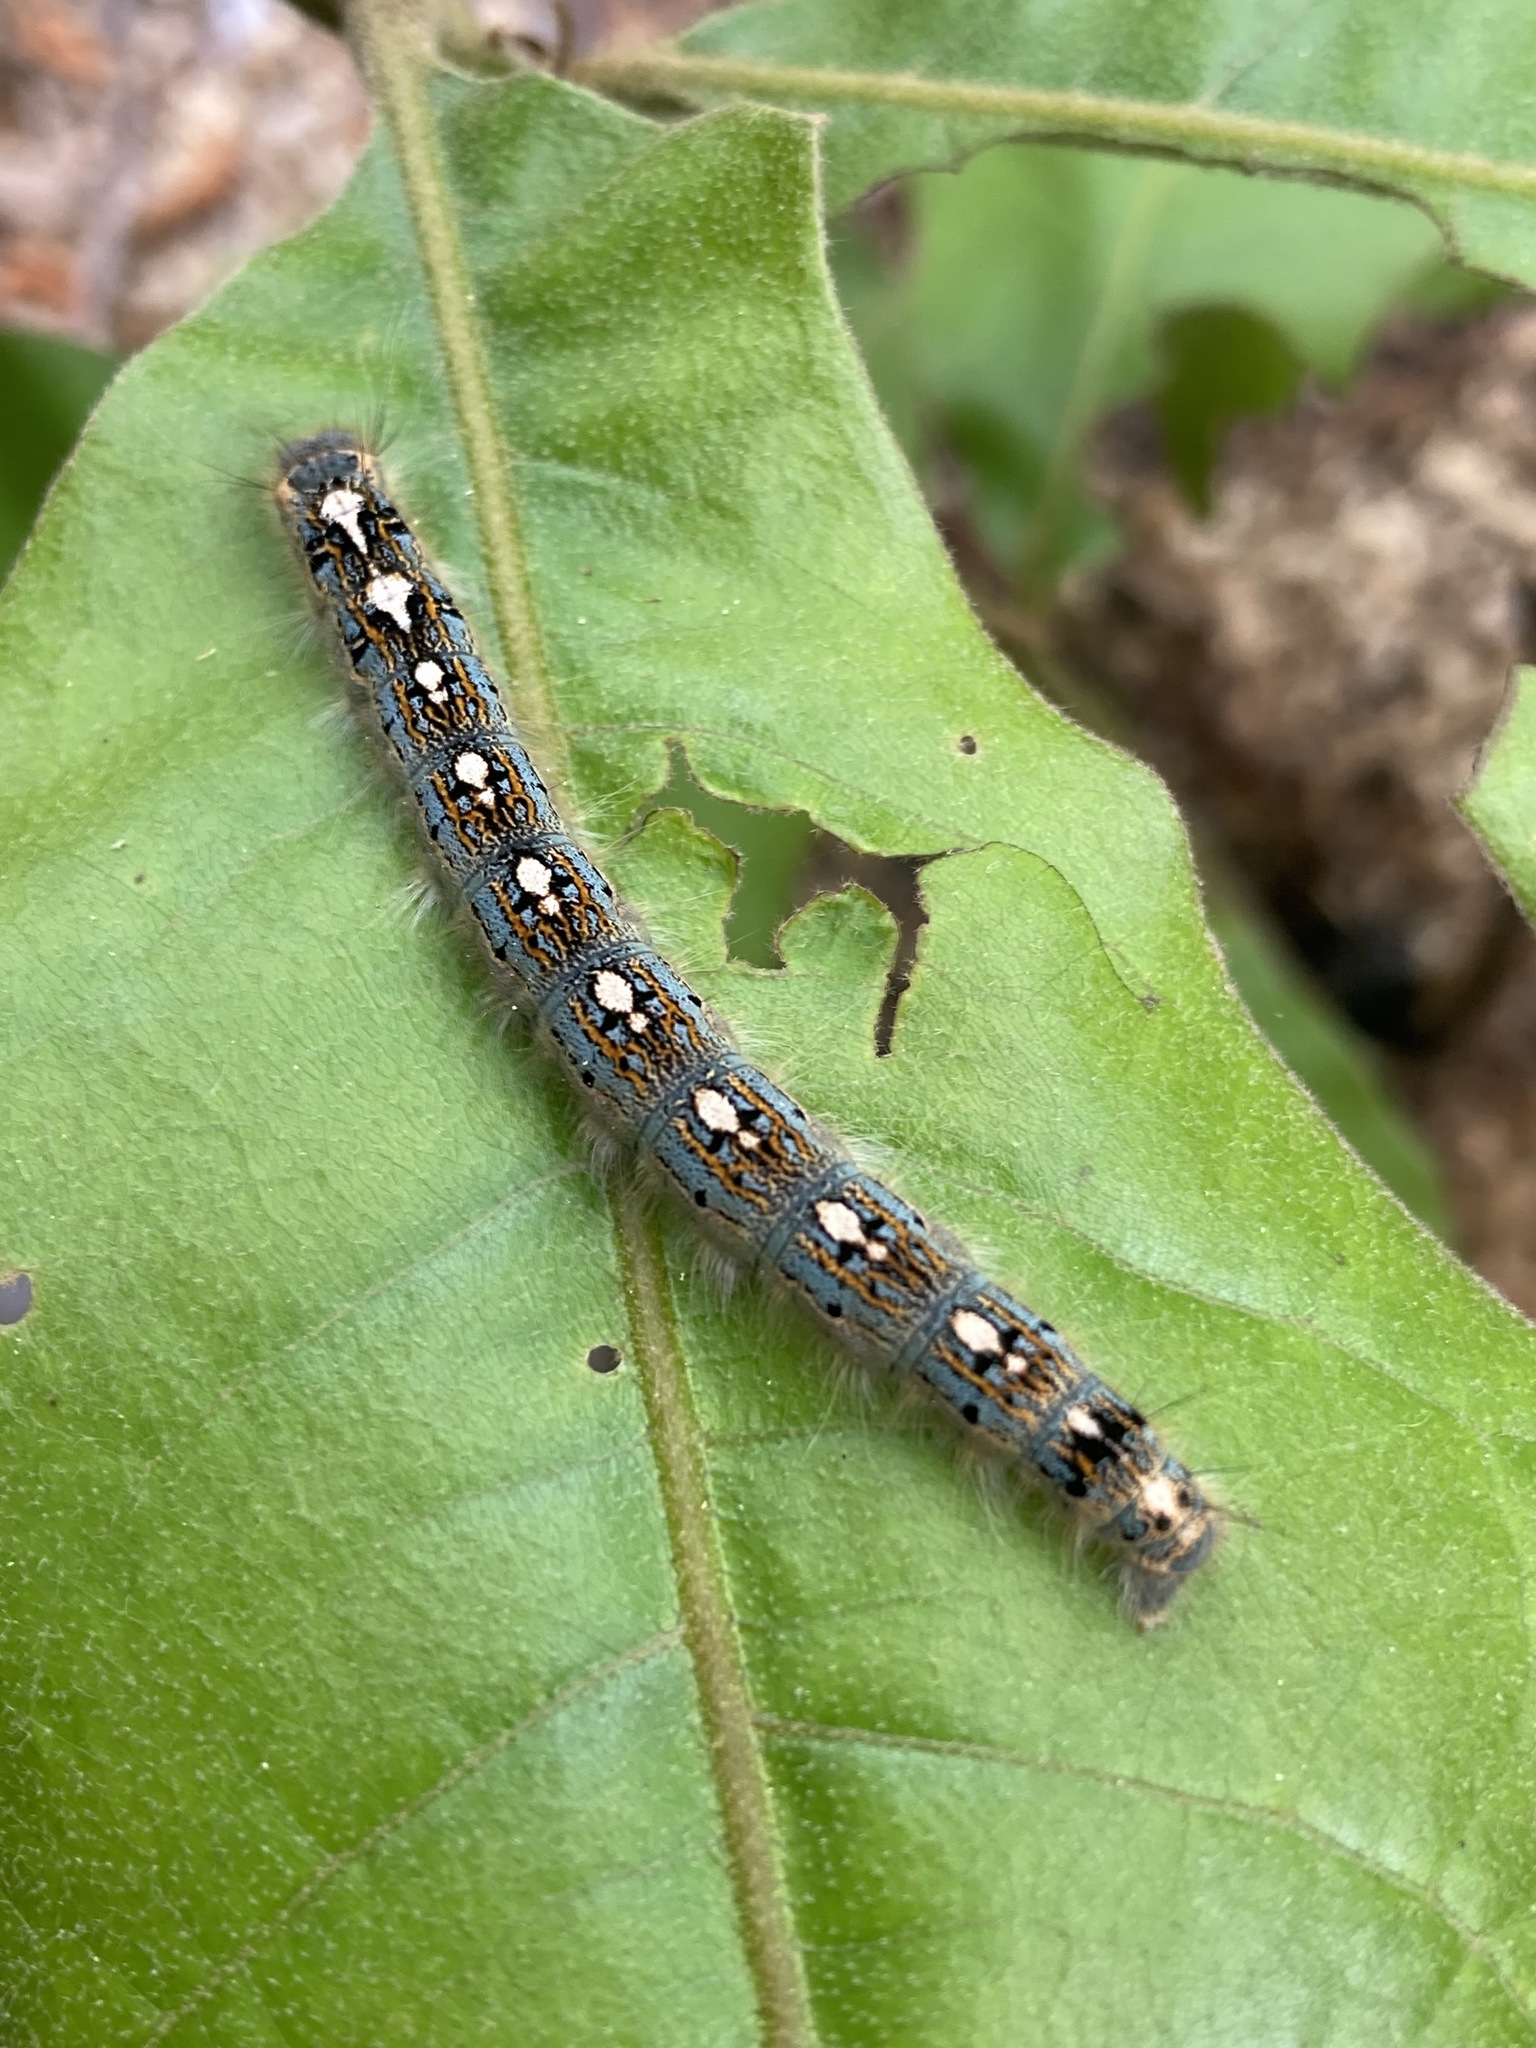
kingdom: Animalia
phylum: Arthropoda
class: Insecta
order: Lepidoptera
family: Lasiocampidae
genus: Malacosoma
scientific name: Malacosoma disstria
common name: Forest tent caterpillar
